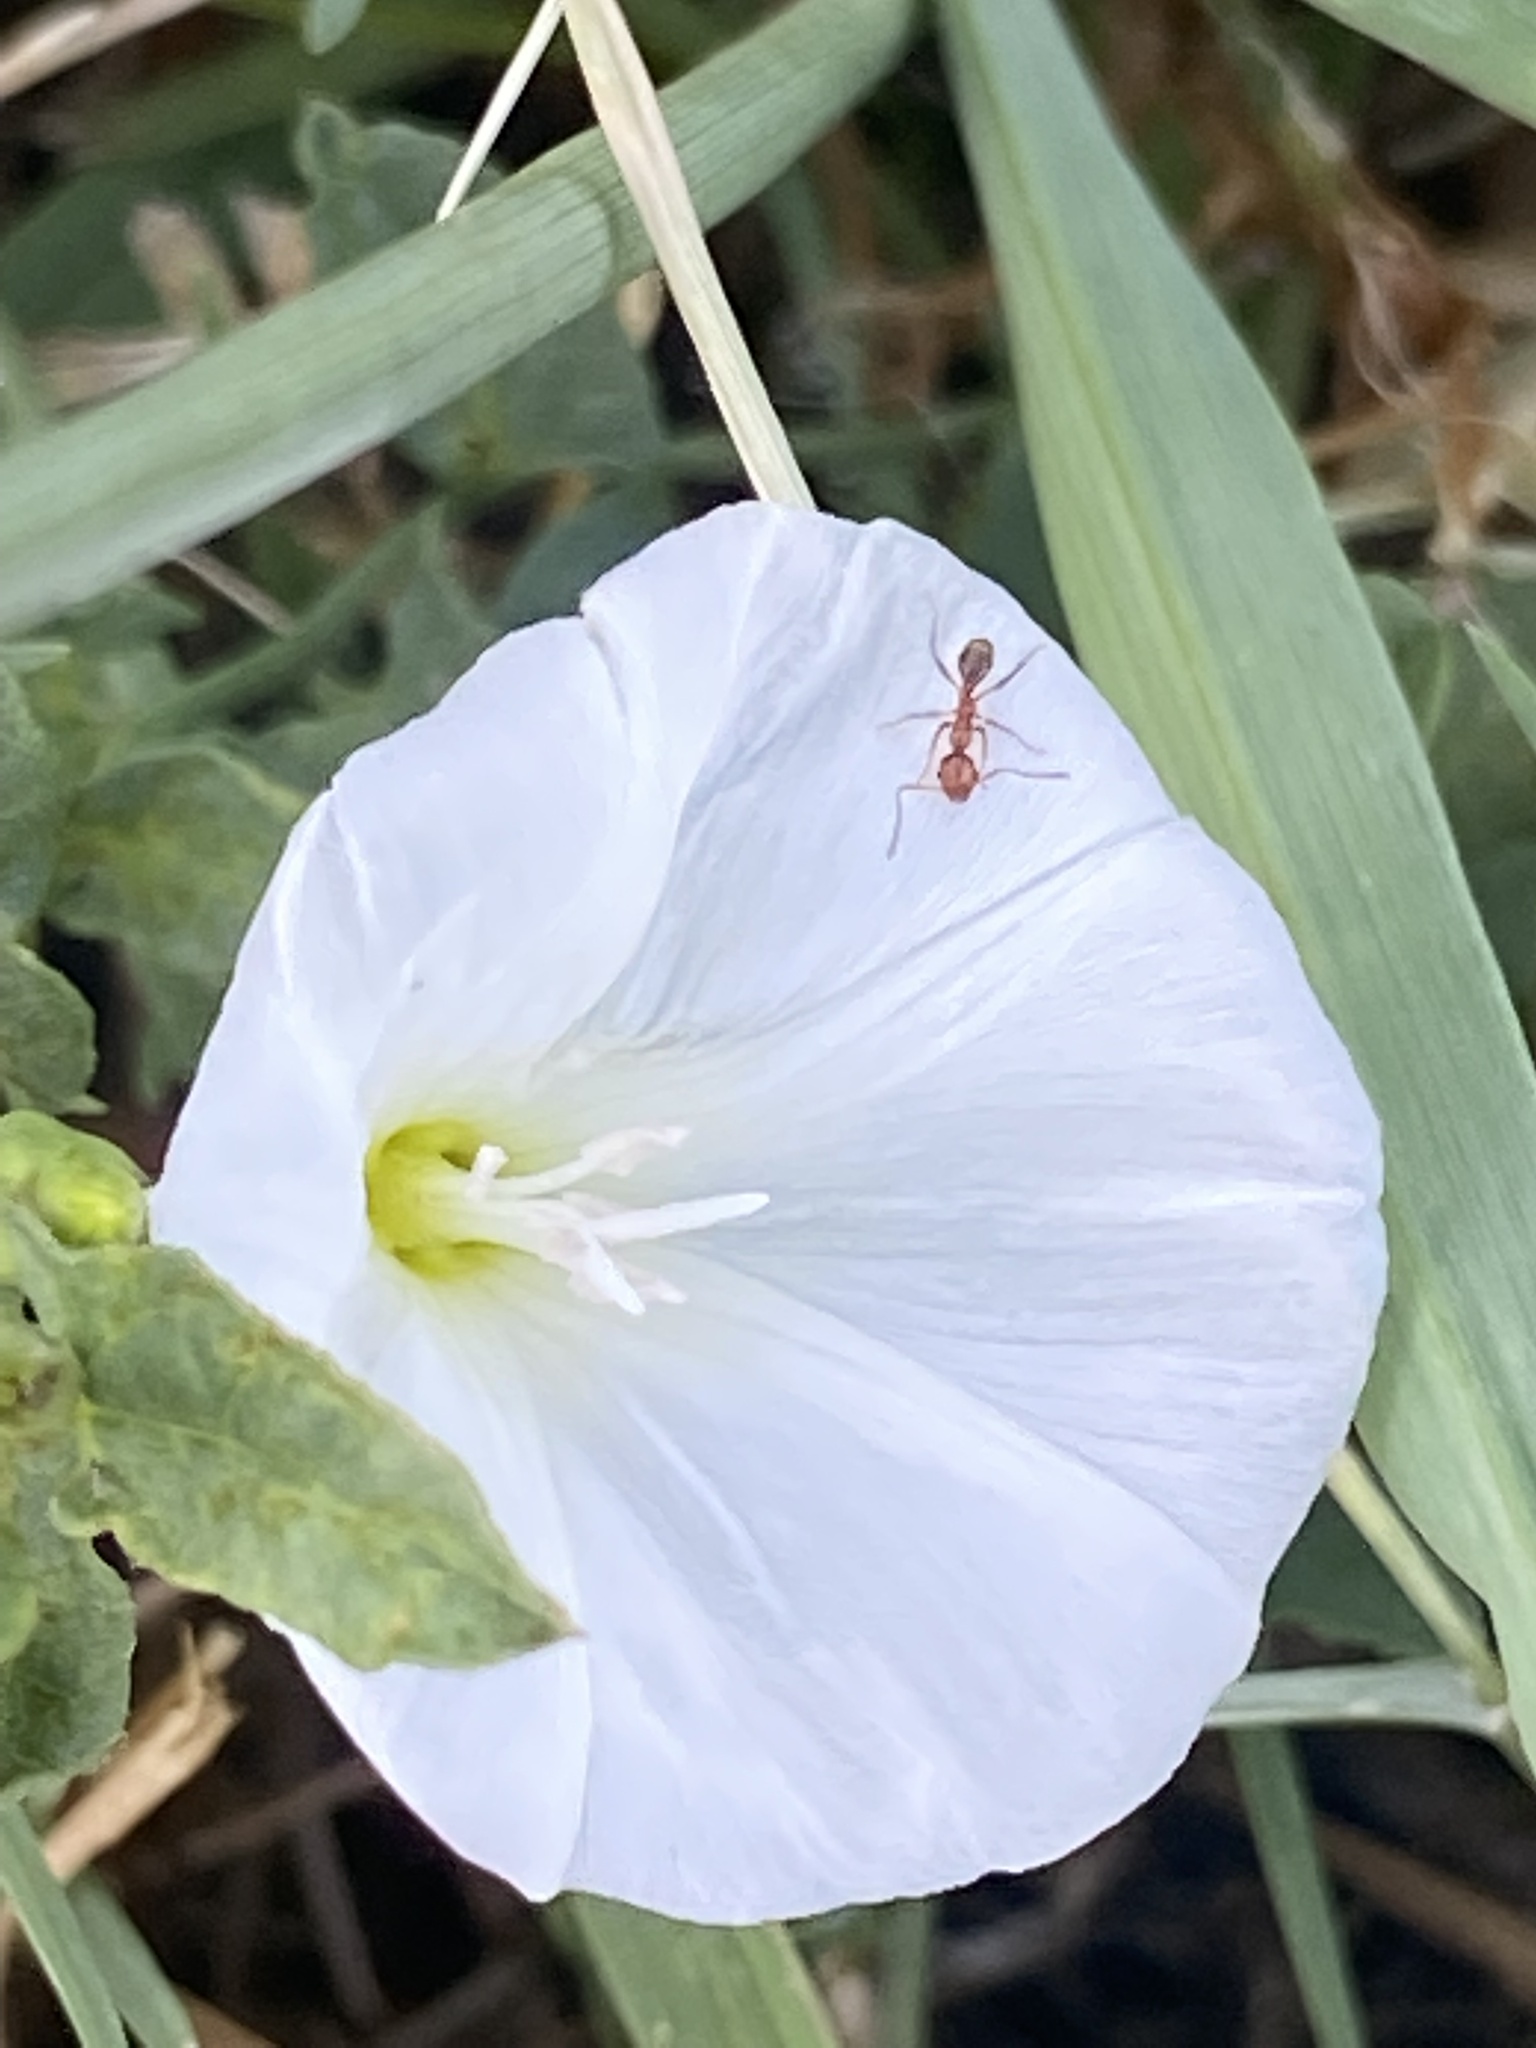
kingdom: Animalia
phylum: Arthropoda
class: Insecta
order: Hymenoptera
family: Formicidae
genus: Pheidole
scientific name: Pheidole dentata
